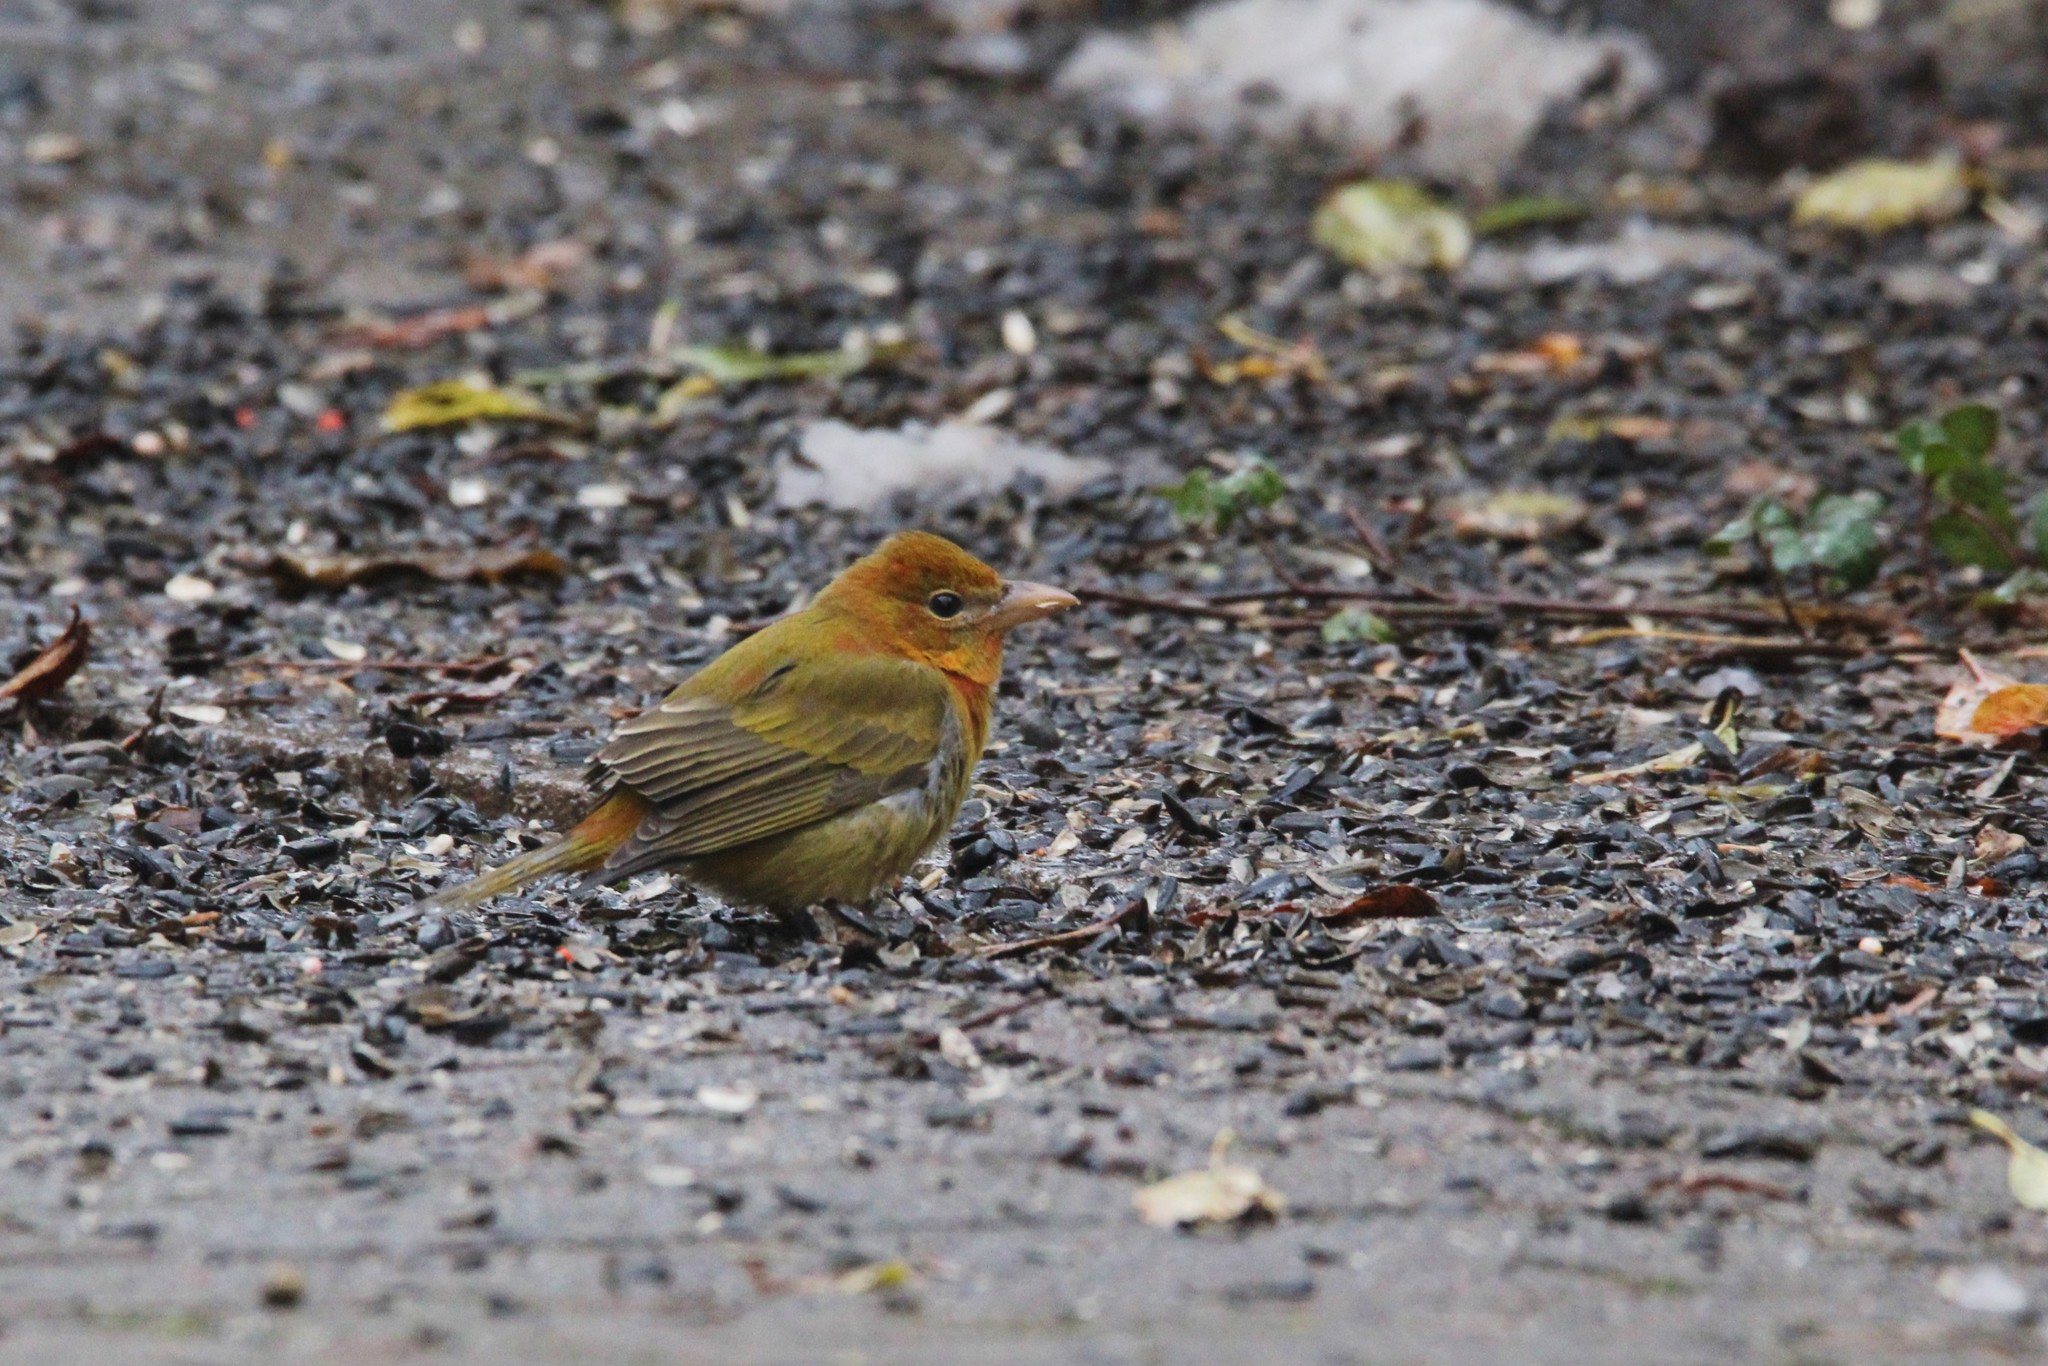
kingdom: Animalia
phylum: Chordata
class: Aves
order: Passeriformes
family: Cardinalidae
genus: Piranga
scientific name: Piranga rubra
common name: Summer tanager
